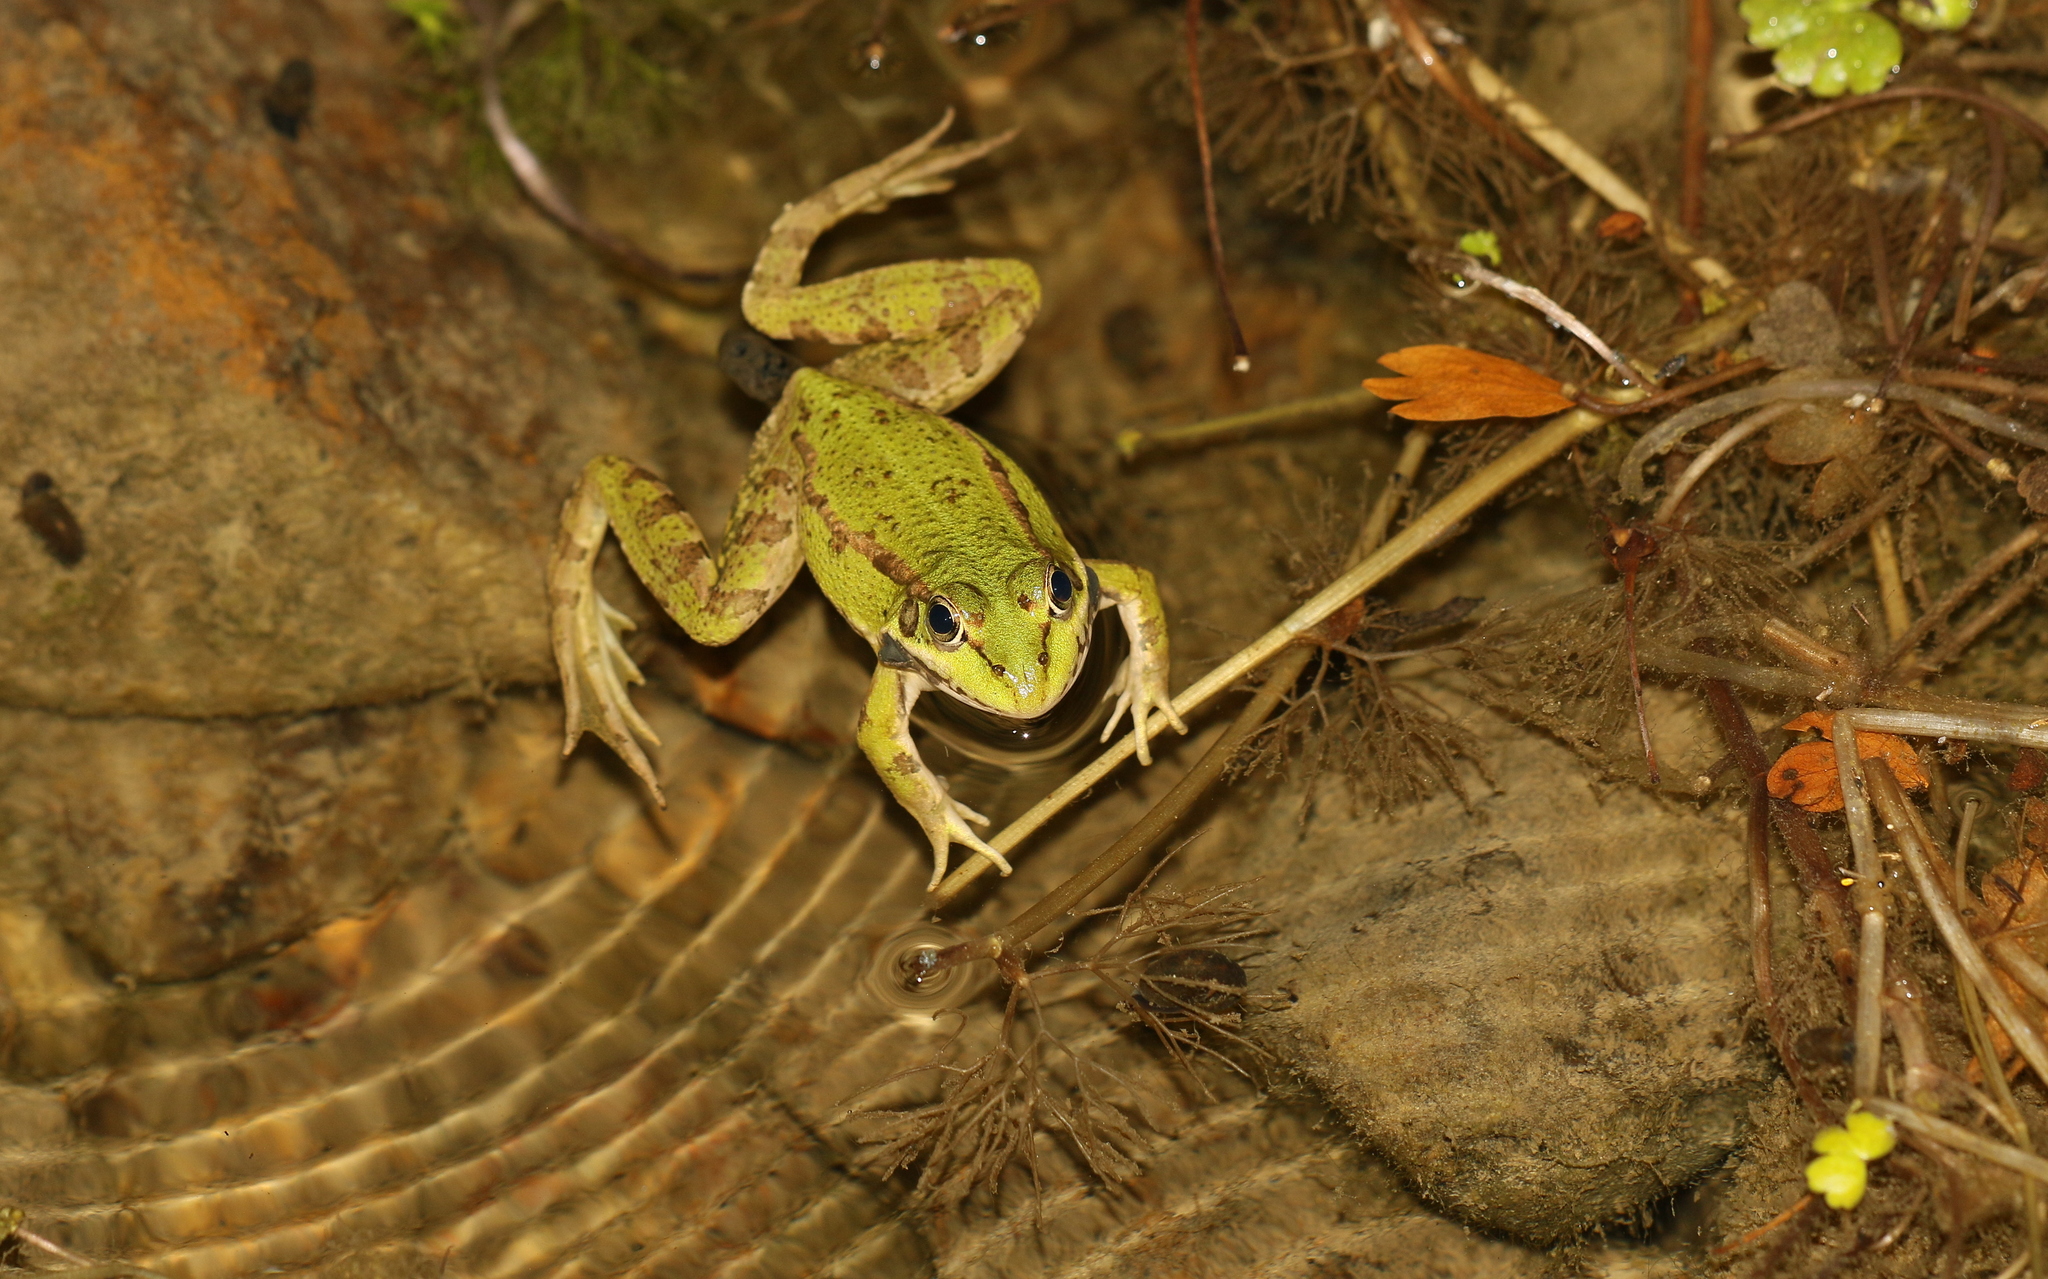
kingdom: Animalia
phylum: Chordata
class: Amphibia
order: Anura
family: Ranidae
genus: Pelophylax
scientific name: Pelophylax perezi
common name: Perez's frog
